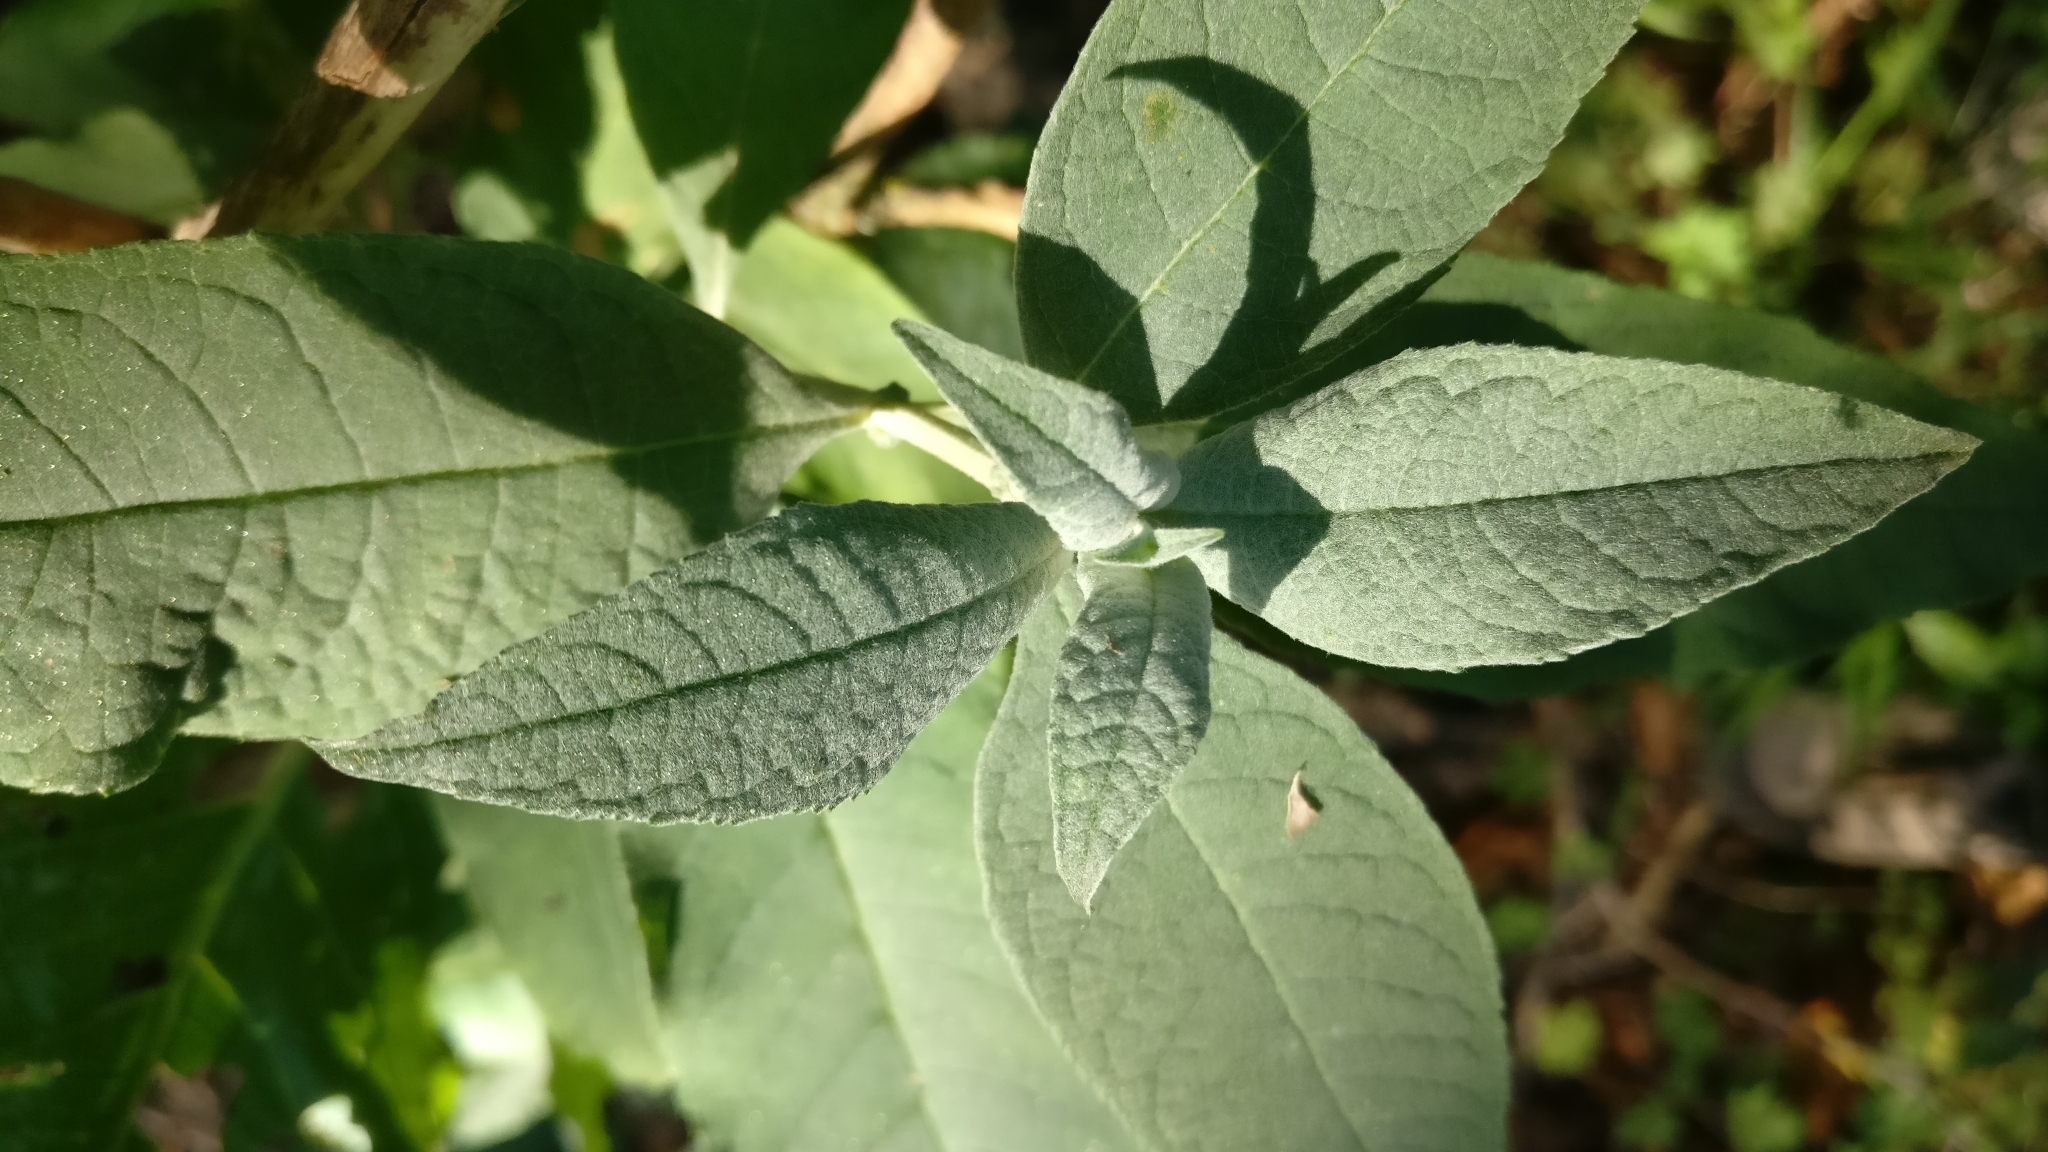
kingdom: Plantae
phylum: Tracheophyta
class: Magnoliopsida
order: Lamiales
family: Scrophulariaceae
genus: Buddleja
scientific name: Buddleja davidii
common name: Butterfly-bush
